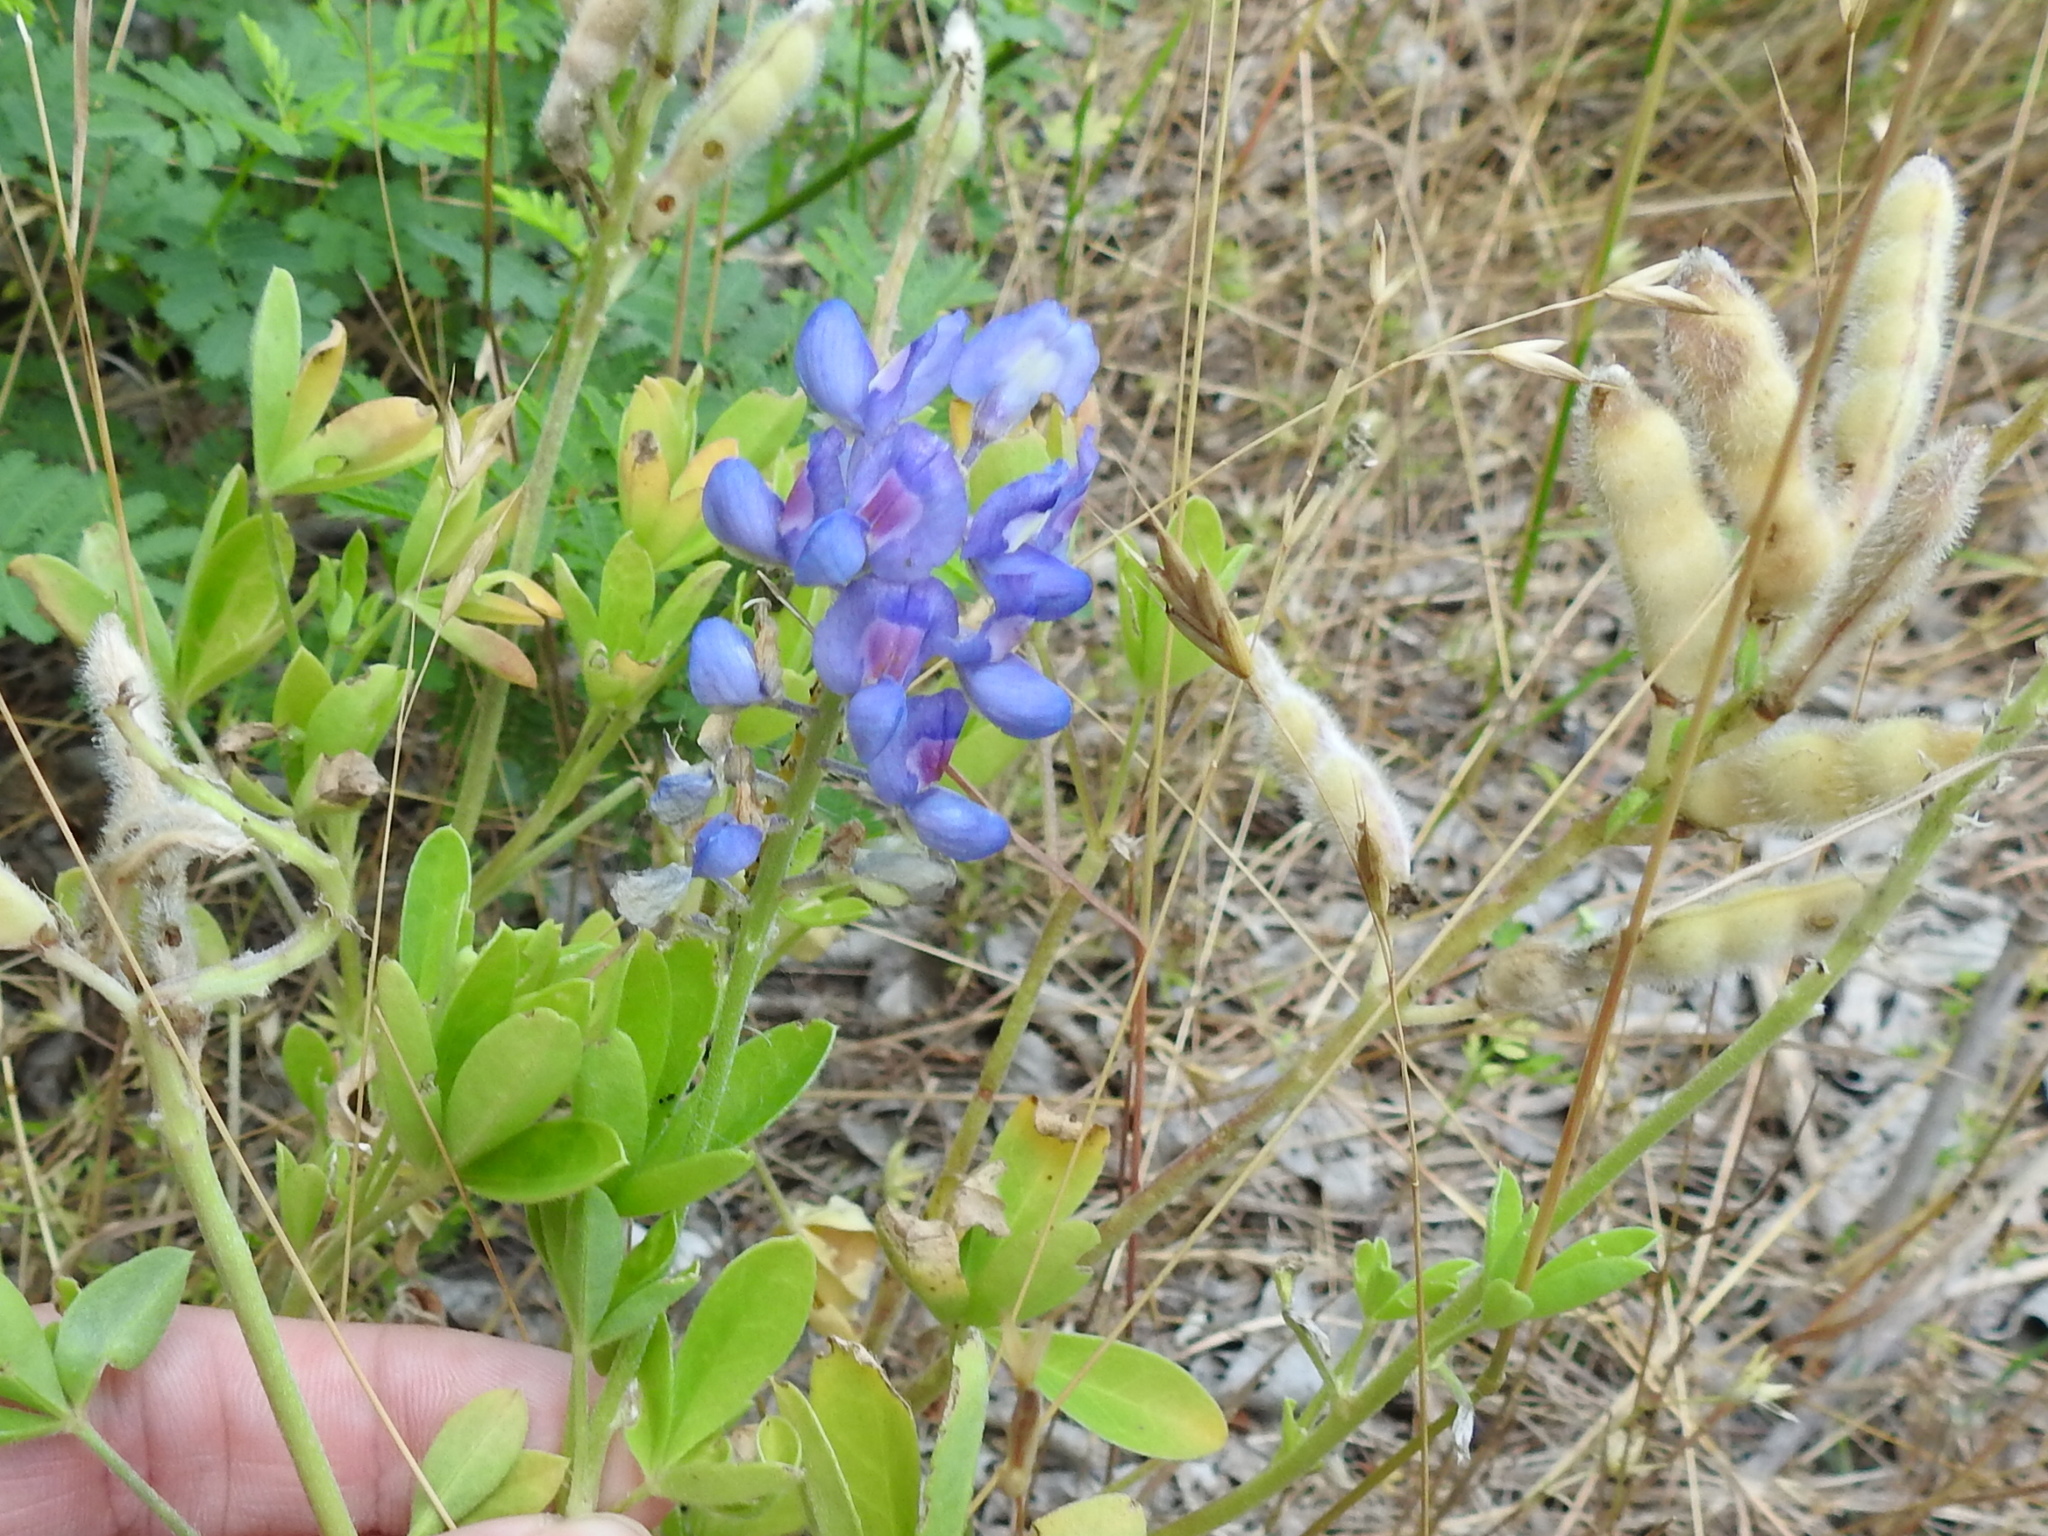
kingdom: Plantae
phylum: Tracheophyta
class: Magnoliopsida
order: Fabales
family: Fabaceae
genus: Lupinus
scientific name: Lupinus texensis
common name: Texas bluebonnet
